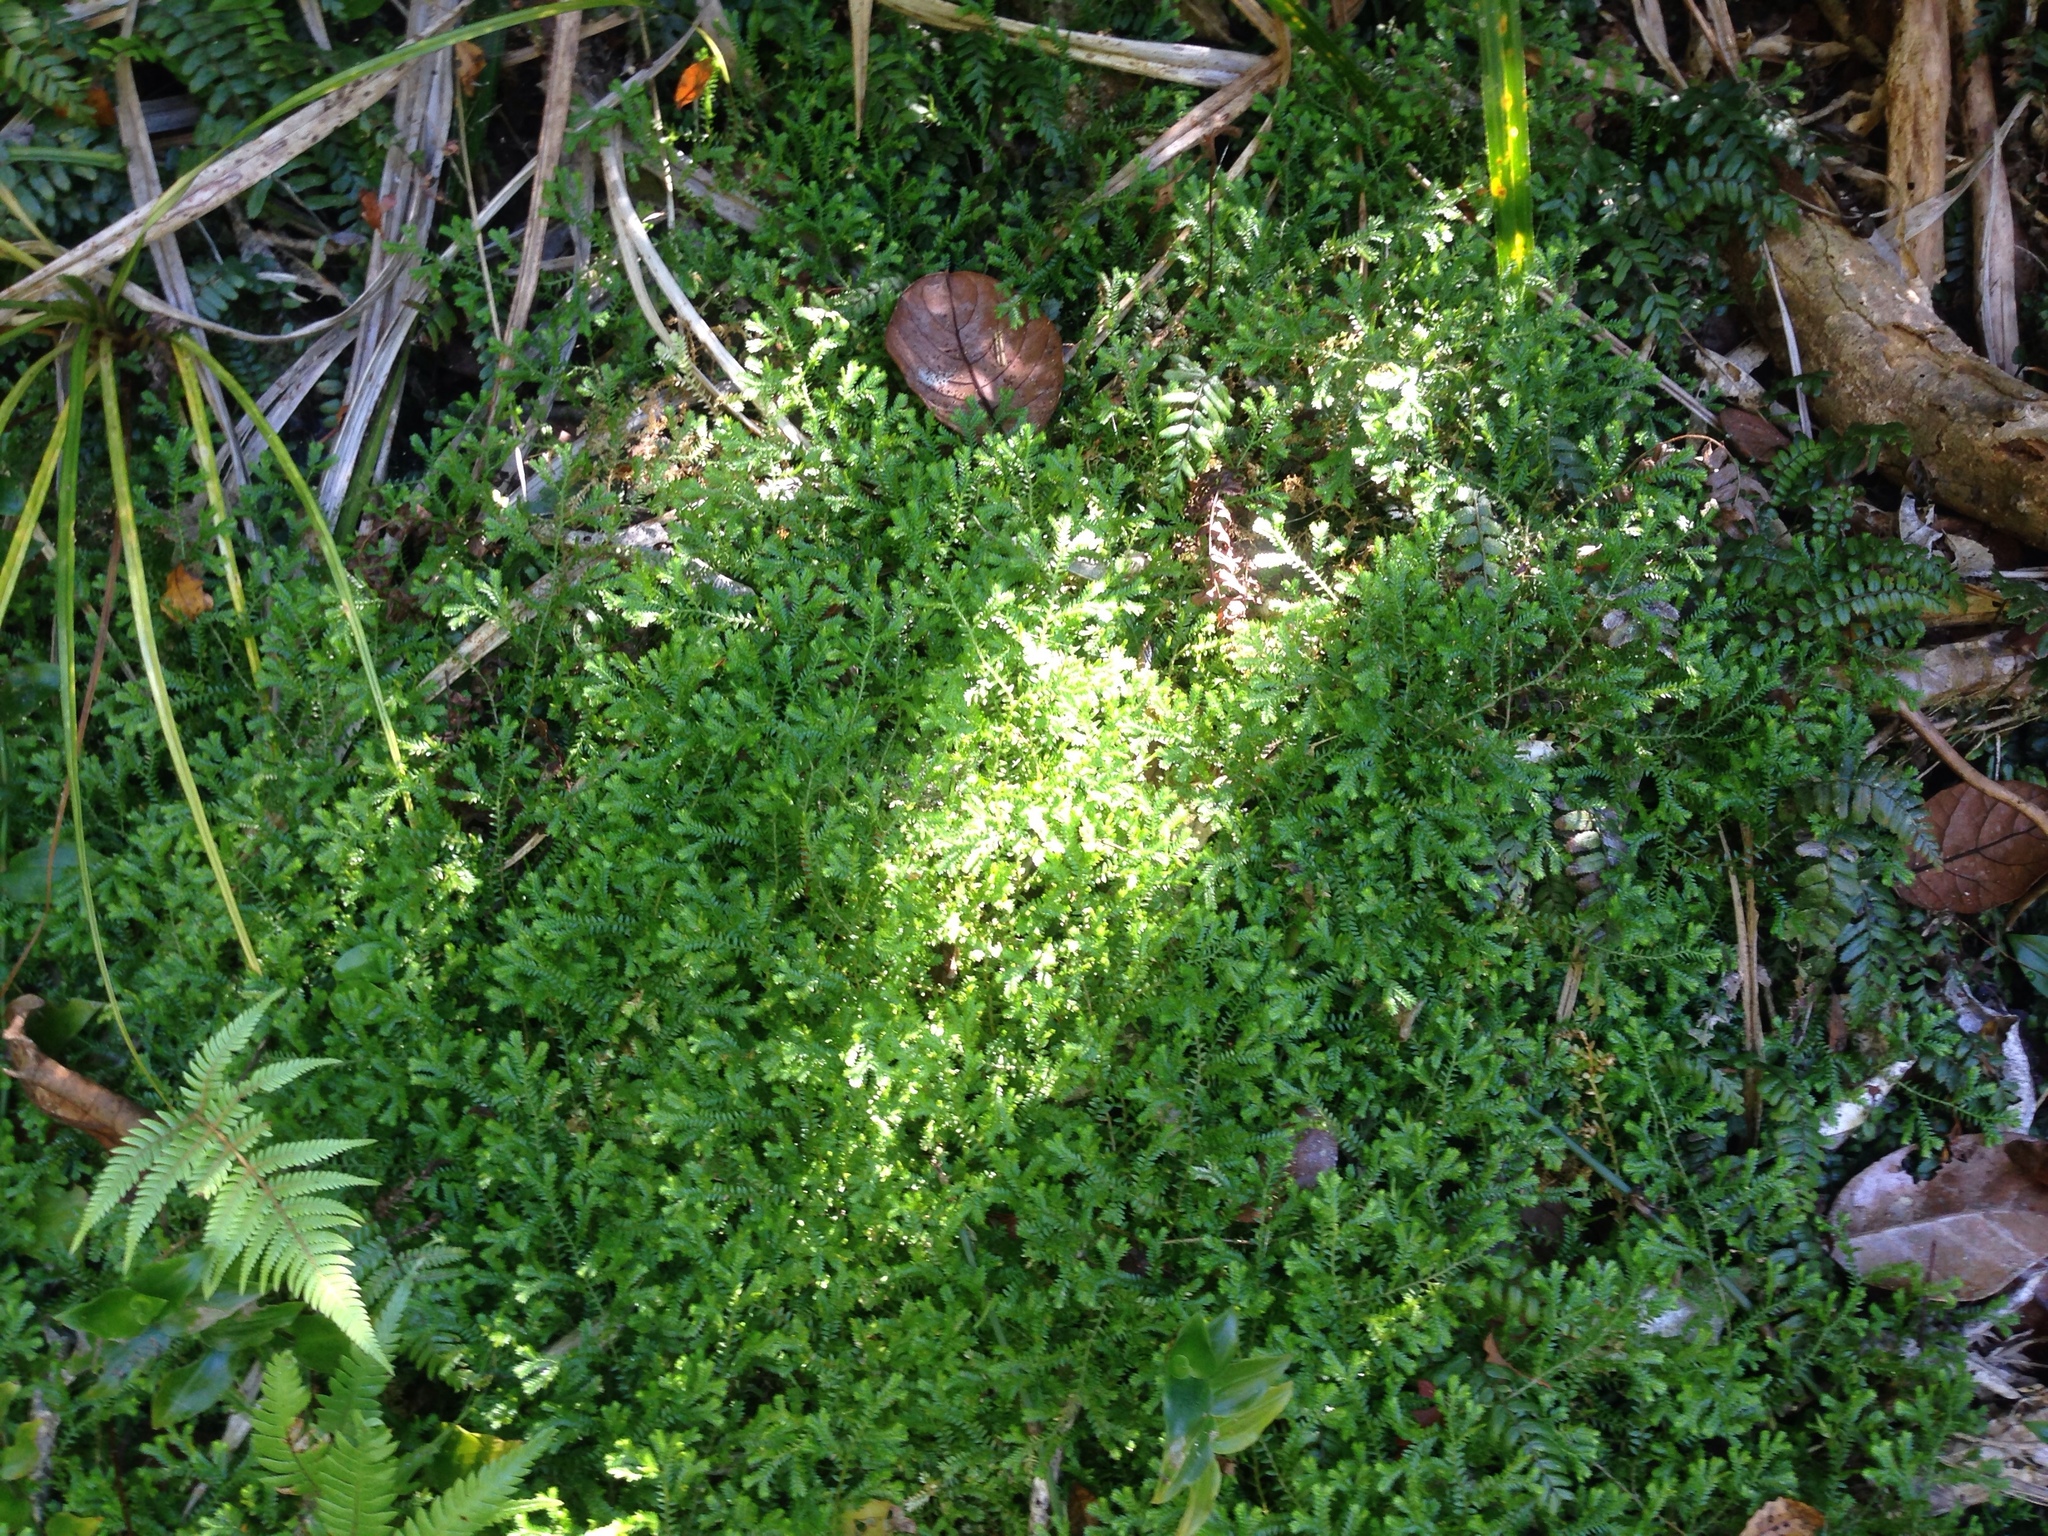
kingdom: Plantae
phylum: Tracheophyta
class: Lycopodiopsida
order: Selaginellales
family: Selaginellaceae
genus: Selaginella
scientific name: Selaginella kraussiana
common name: Krauss' spikemoss
